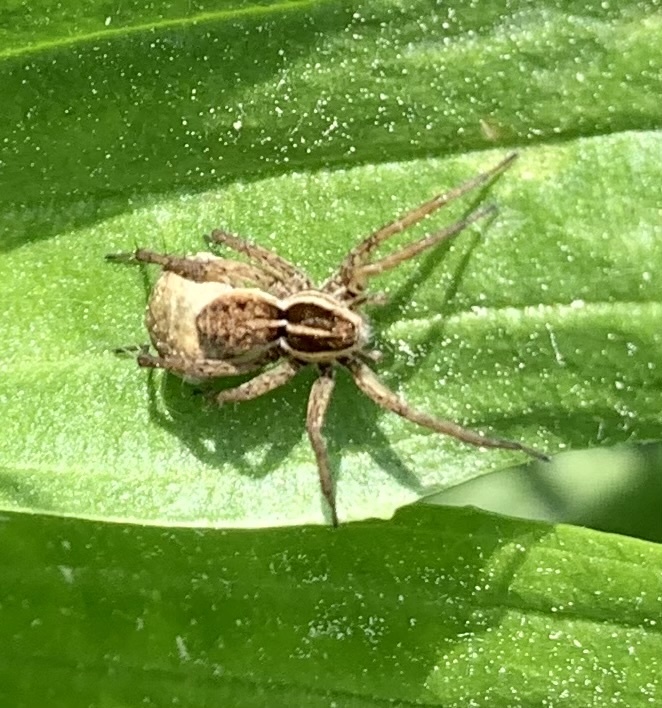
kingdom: Animalia
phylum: Arthropoda
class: Arachnida
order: Araneae
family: Lycosidae
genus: Pardosa
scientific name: Pardosa
